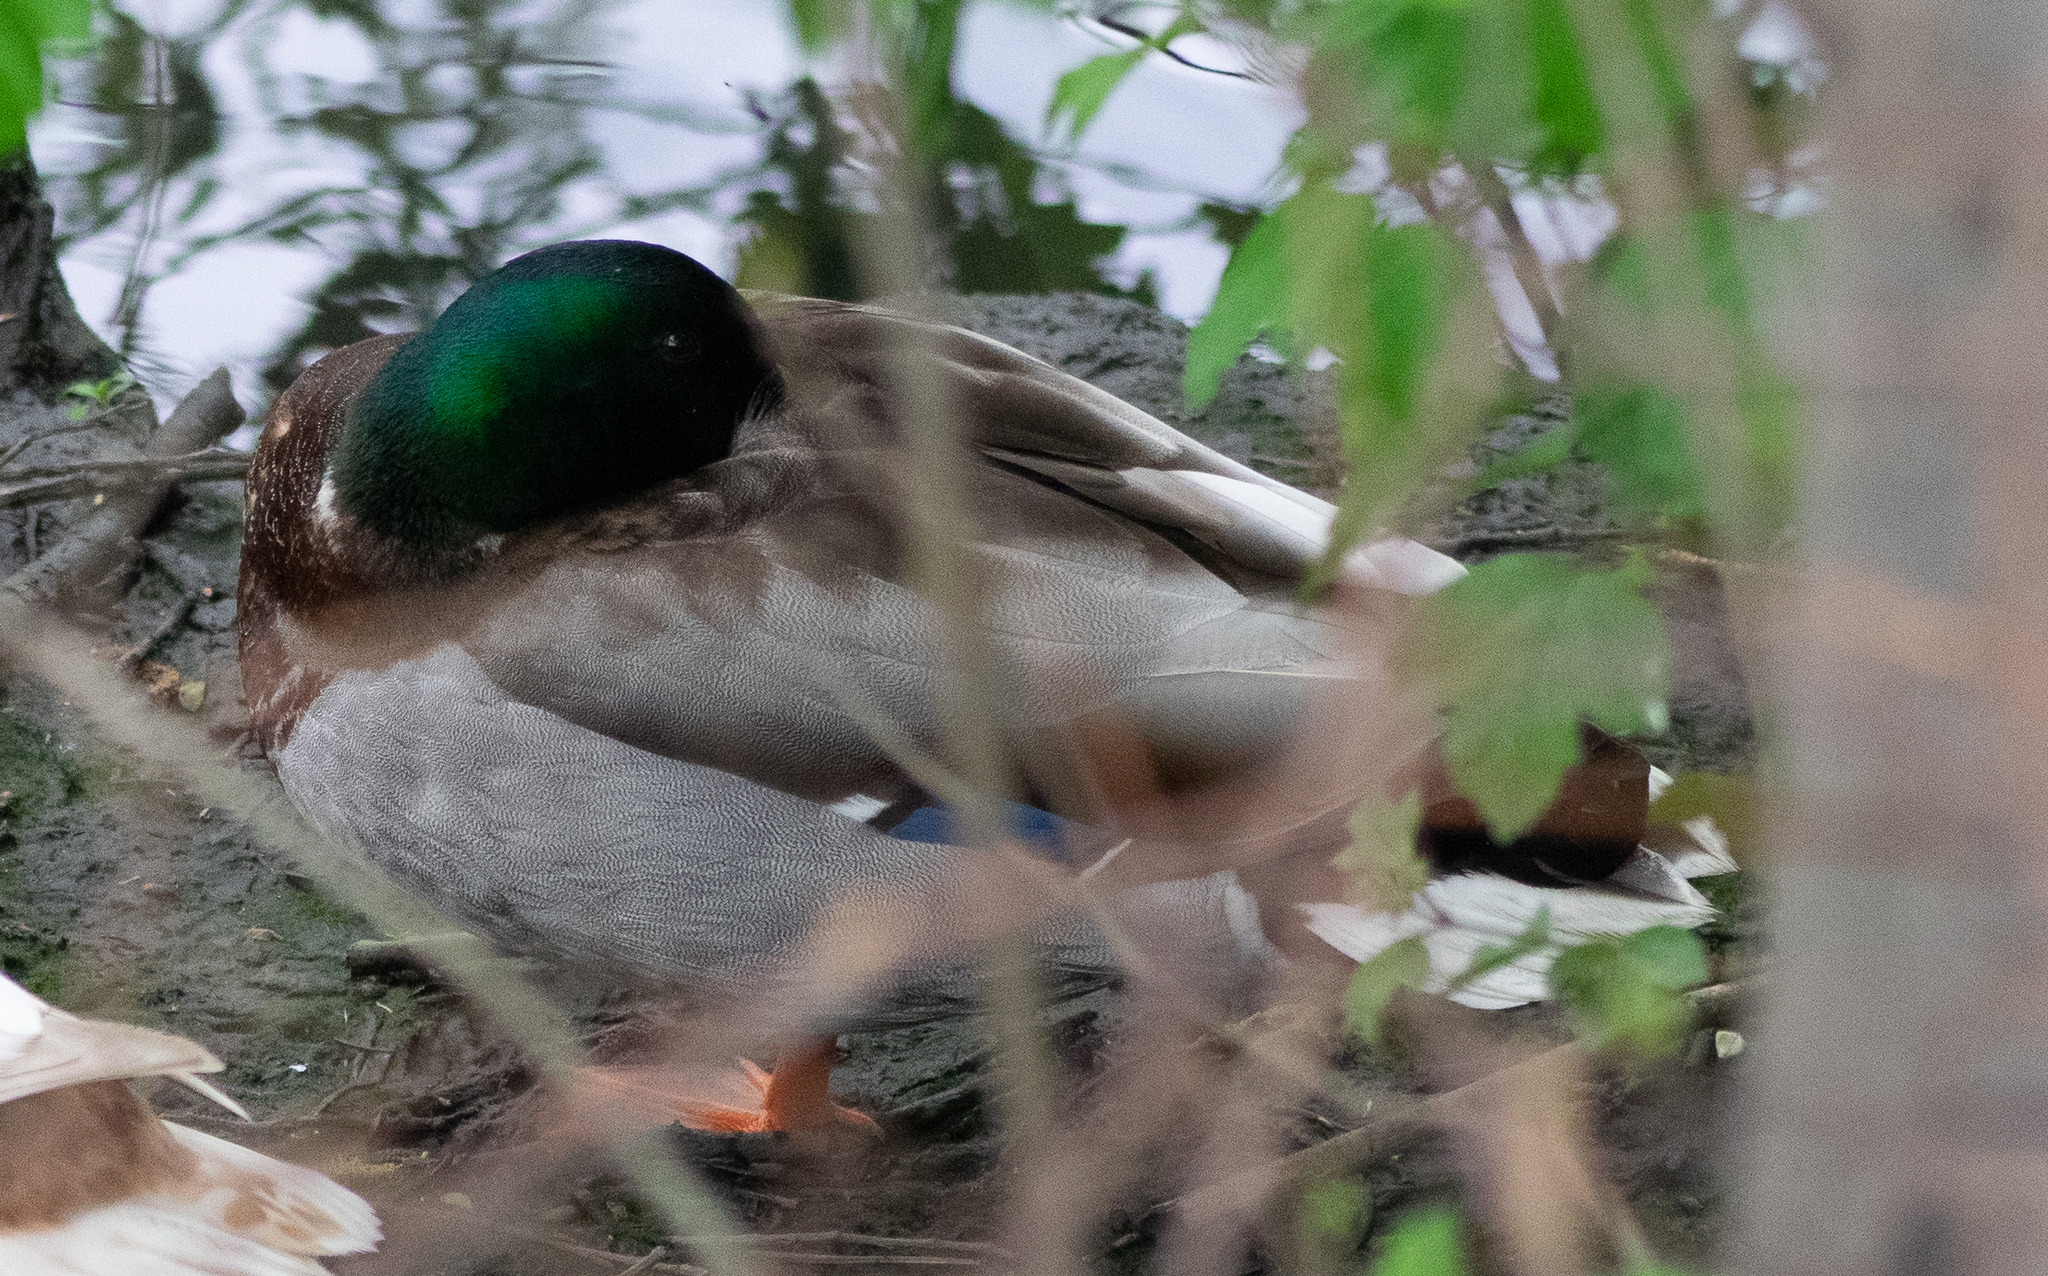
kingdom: Animalia
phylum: Chordata
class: Aves
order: Anseriformes
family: Anatidae
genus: Anas
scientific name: Anas platyrhynchos
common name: Mallard
